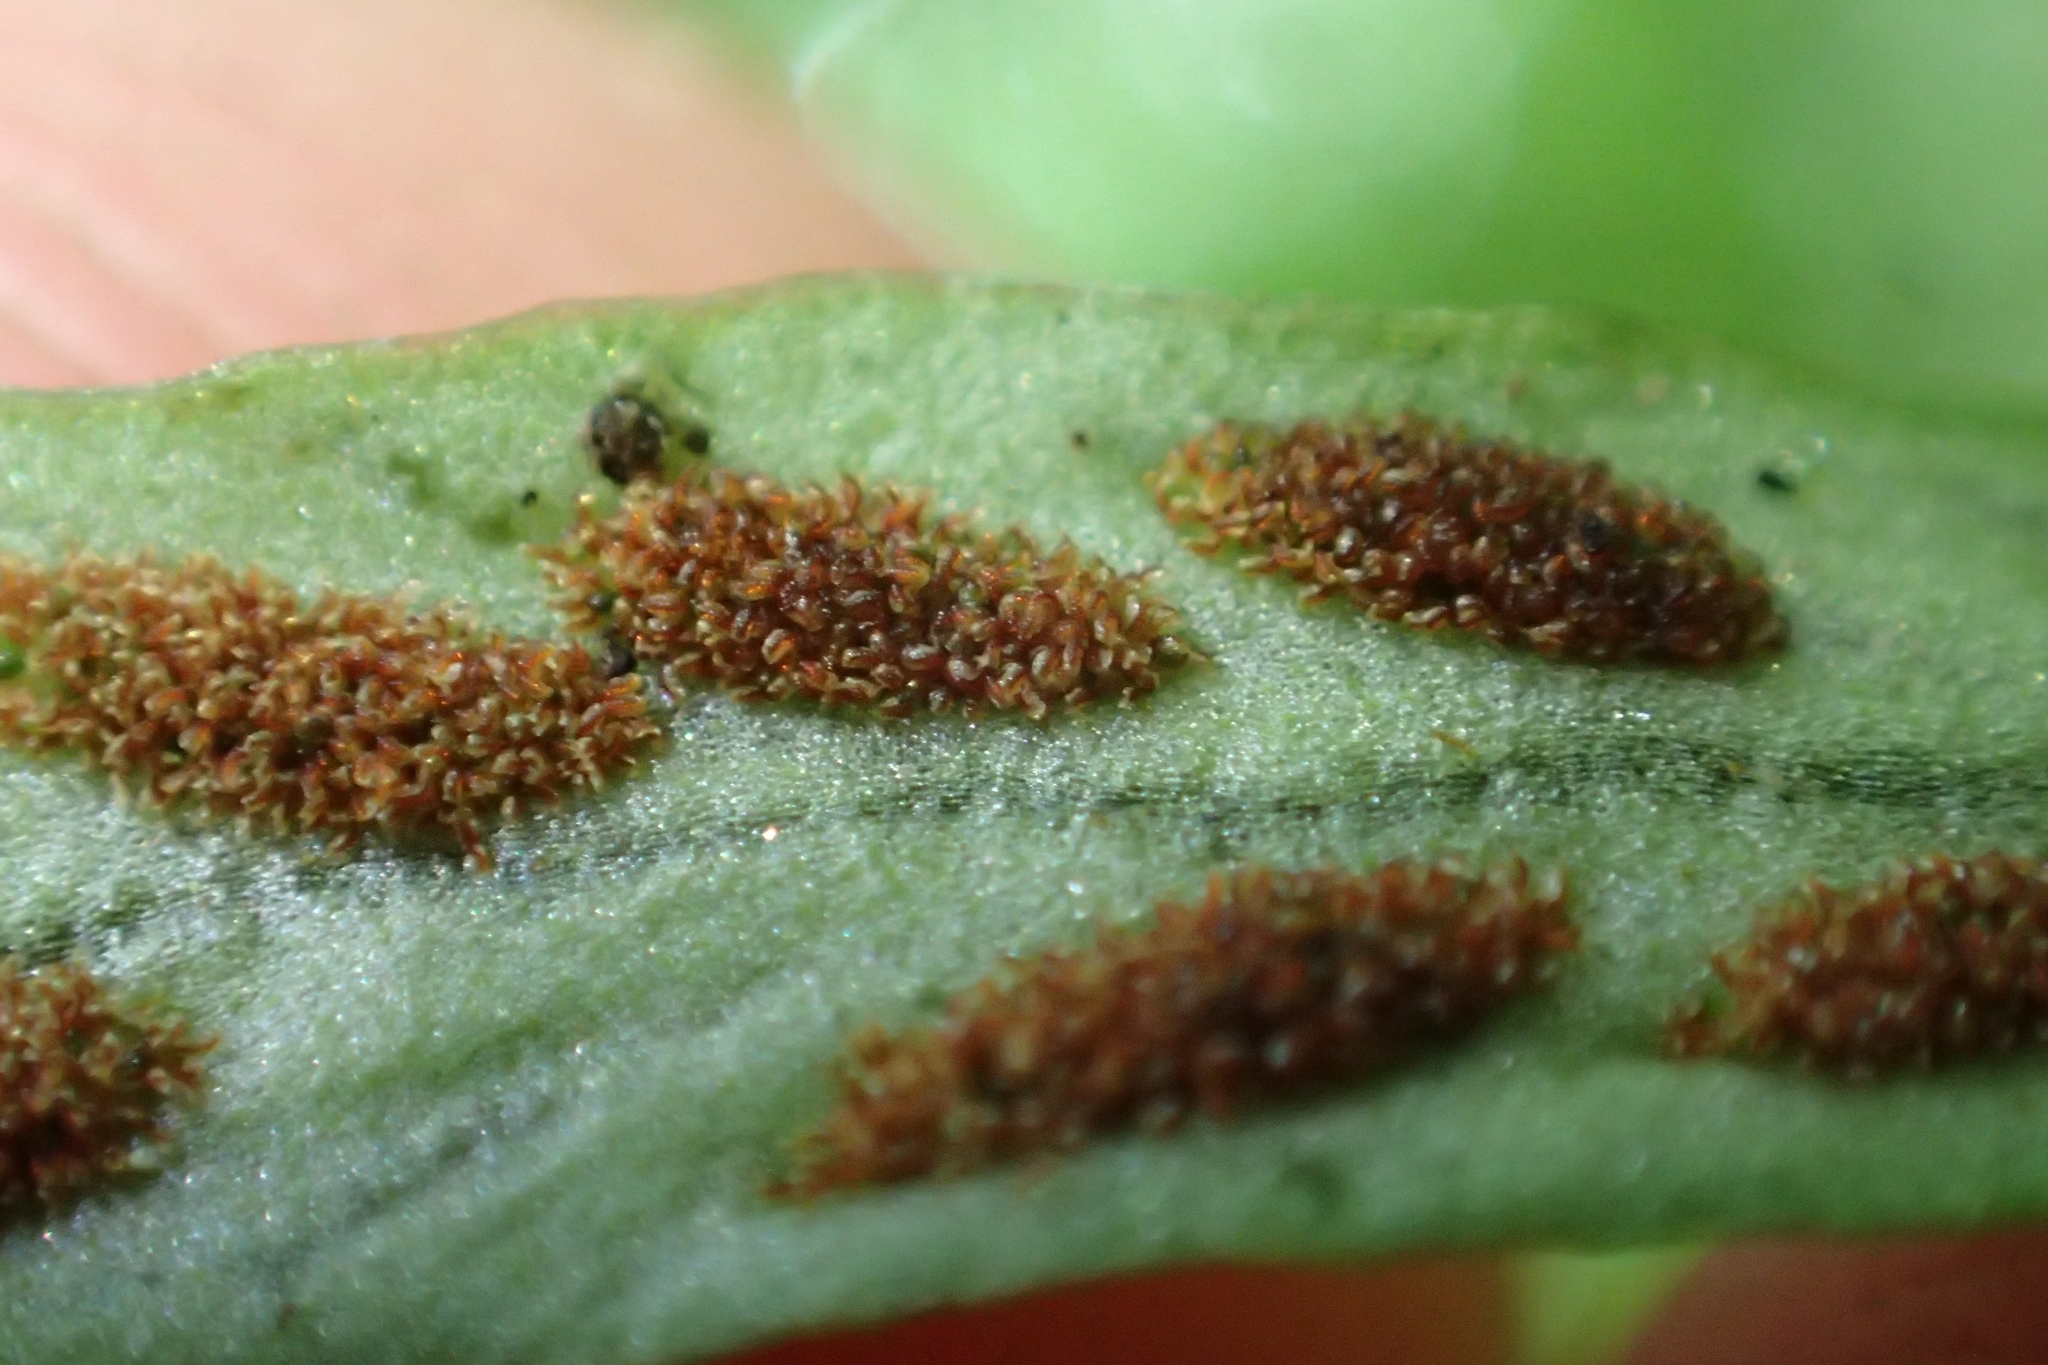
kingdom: Plantae
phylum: Tracheophyta
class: Polypodiopsida
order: Polypodiales
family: Polypodiaceae
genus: Notogrammitis
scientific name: Notogrammitis billardierei
